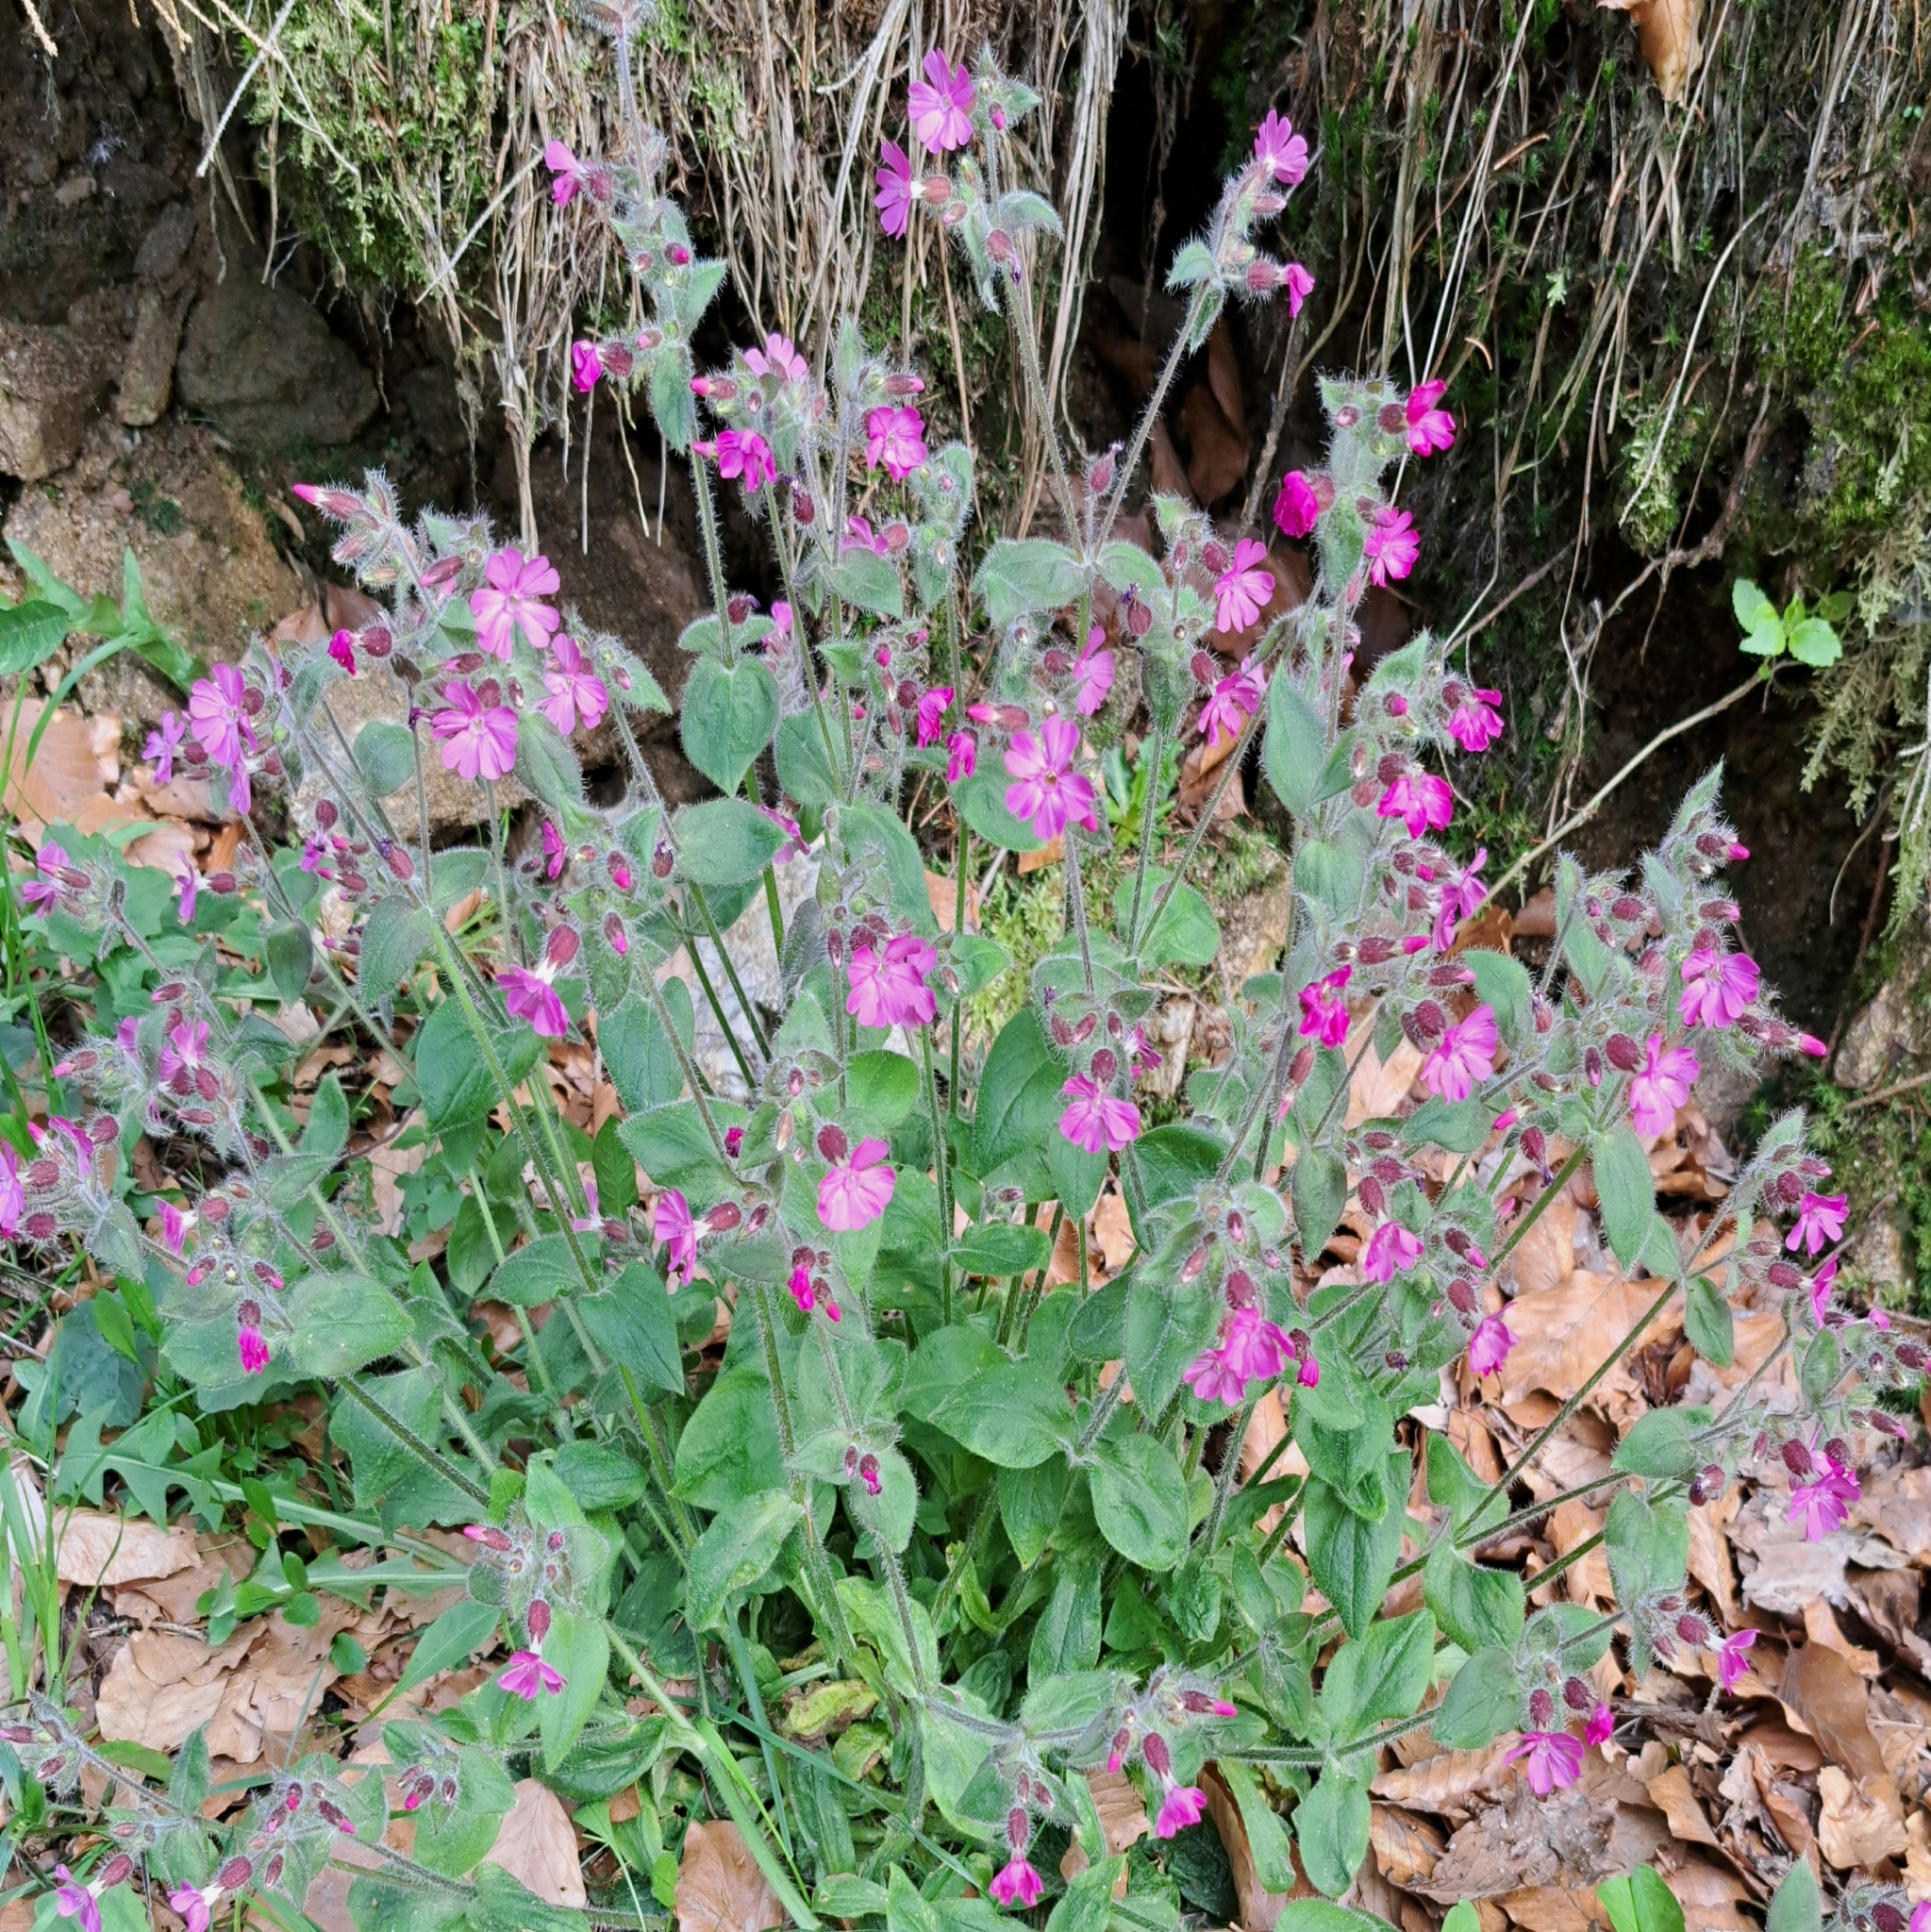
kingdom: Plantae
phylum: Tracheophyta
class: Magnoliopsida
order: Caryophyllales
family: Caryophyllaceae
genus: Silene
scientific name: Silene dioica
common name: Red campion
